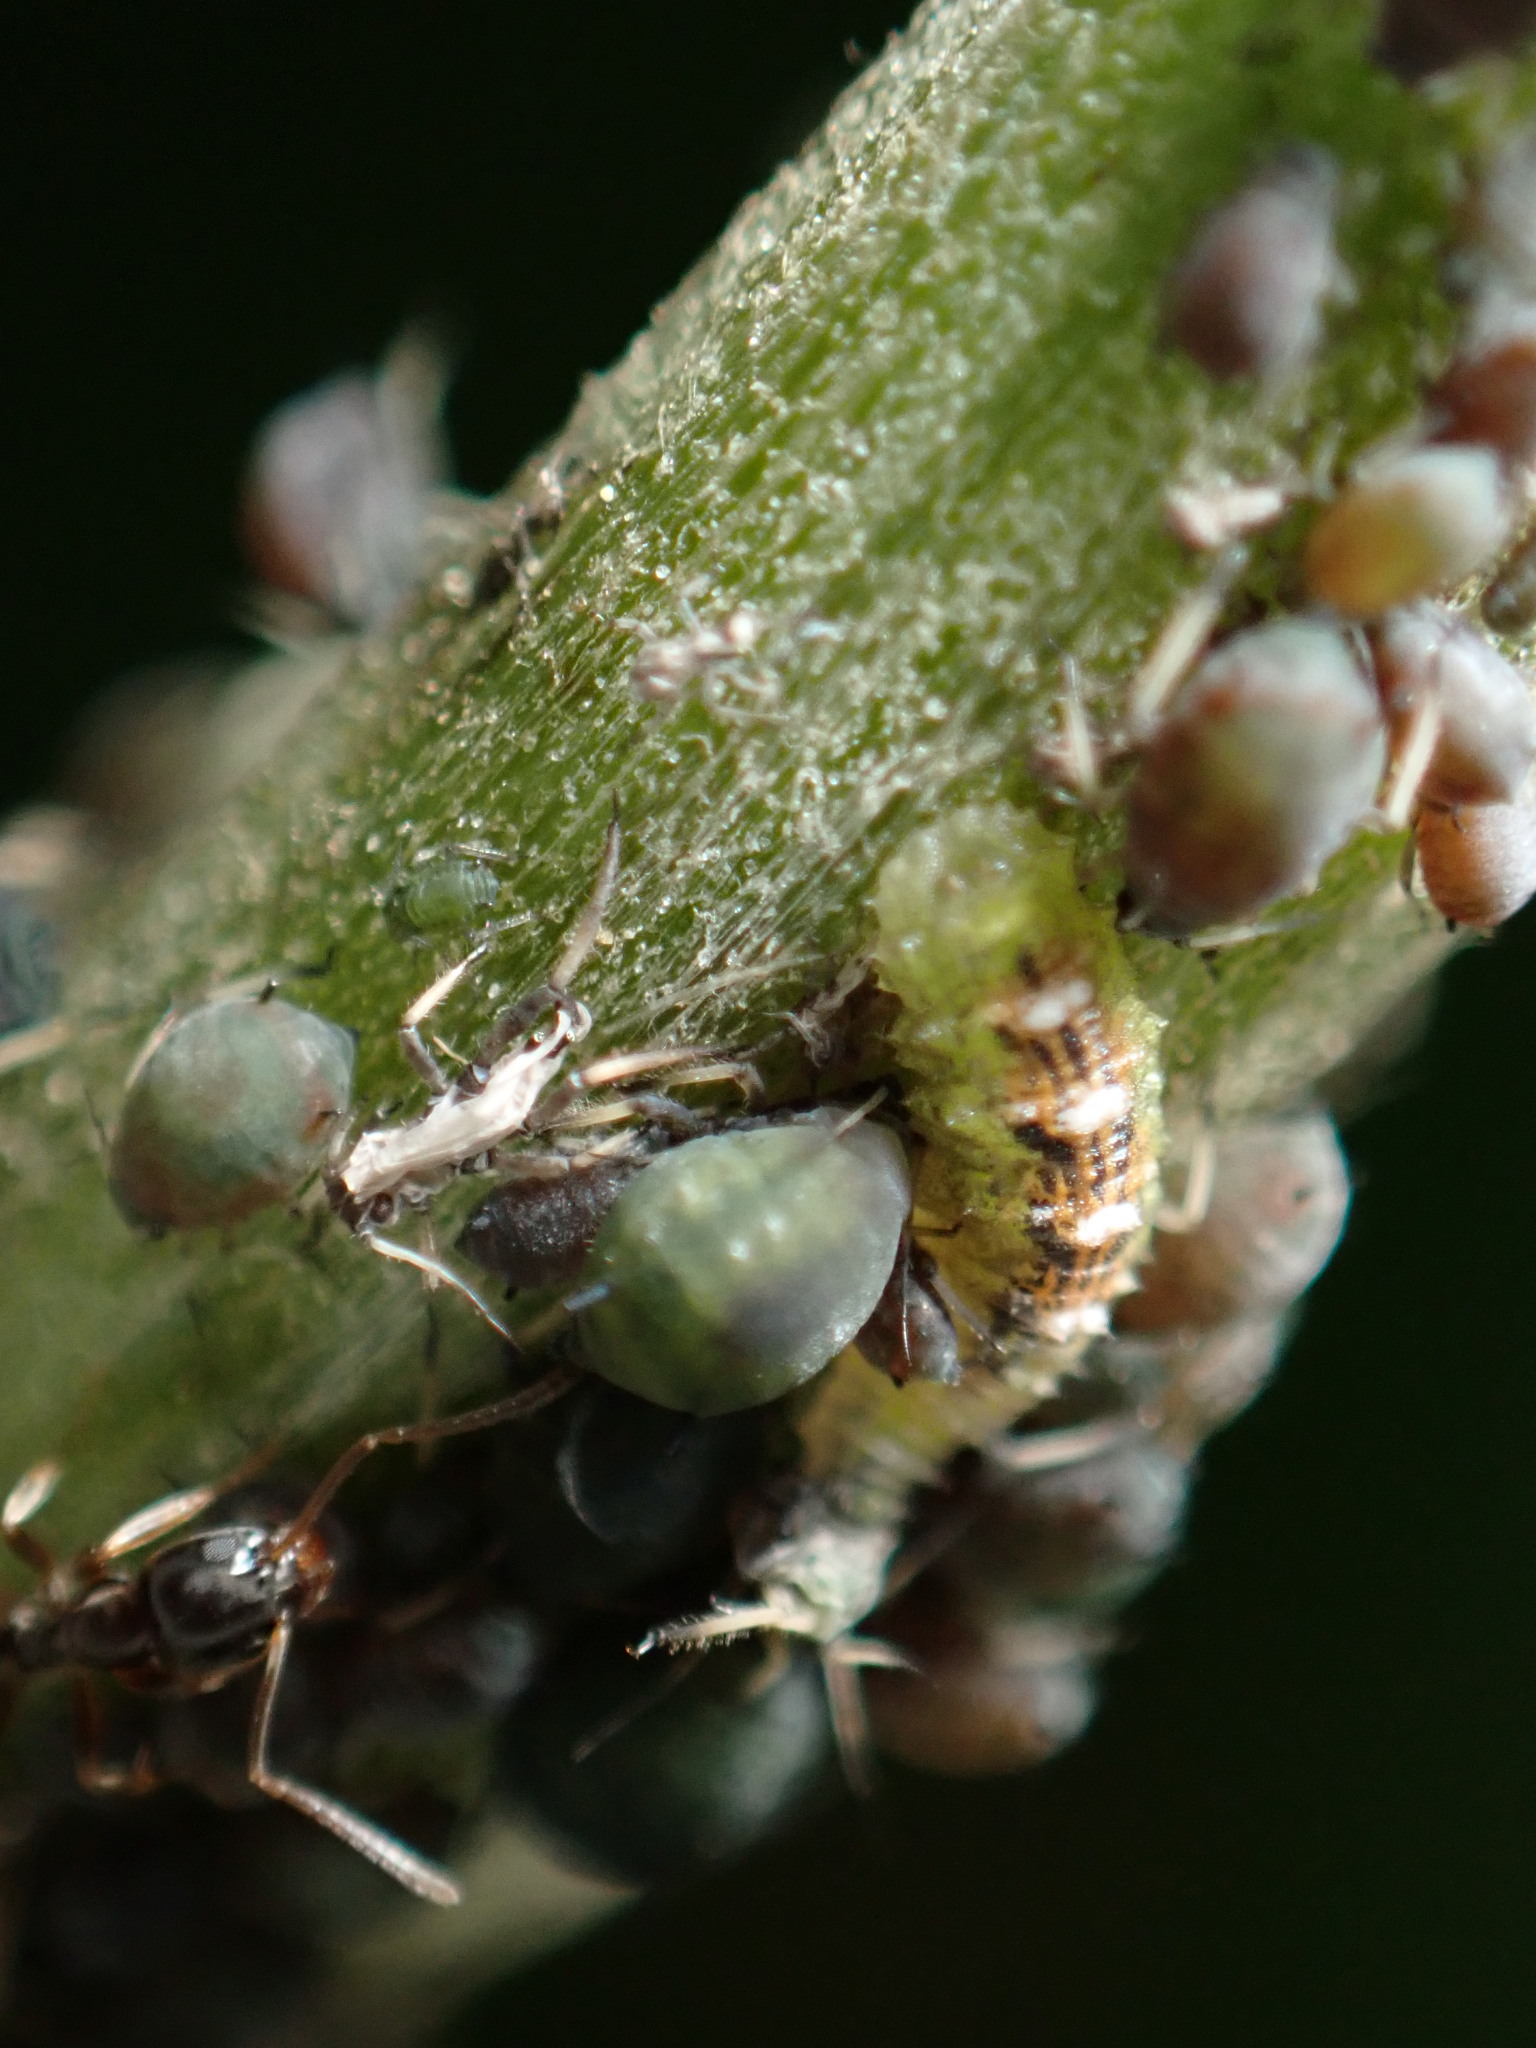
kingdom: Animalia
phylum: Arthropoda
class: Insecta
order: Diptera
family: Syrphidae
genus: Eupeodes
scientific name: Eupeodes pomus
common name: Short-tailed aphideater
